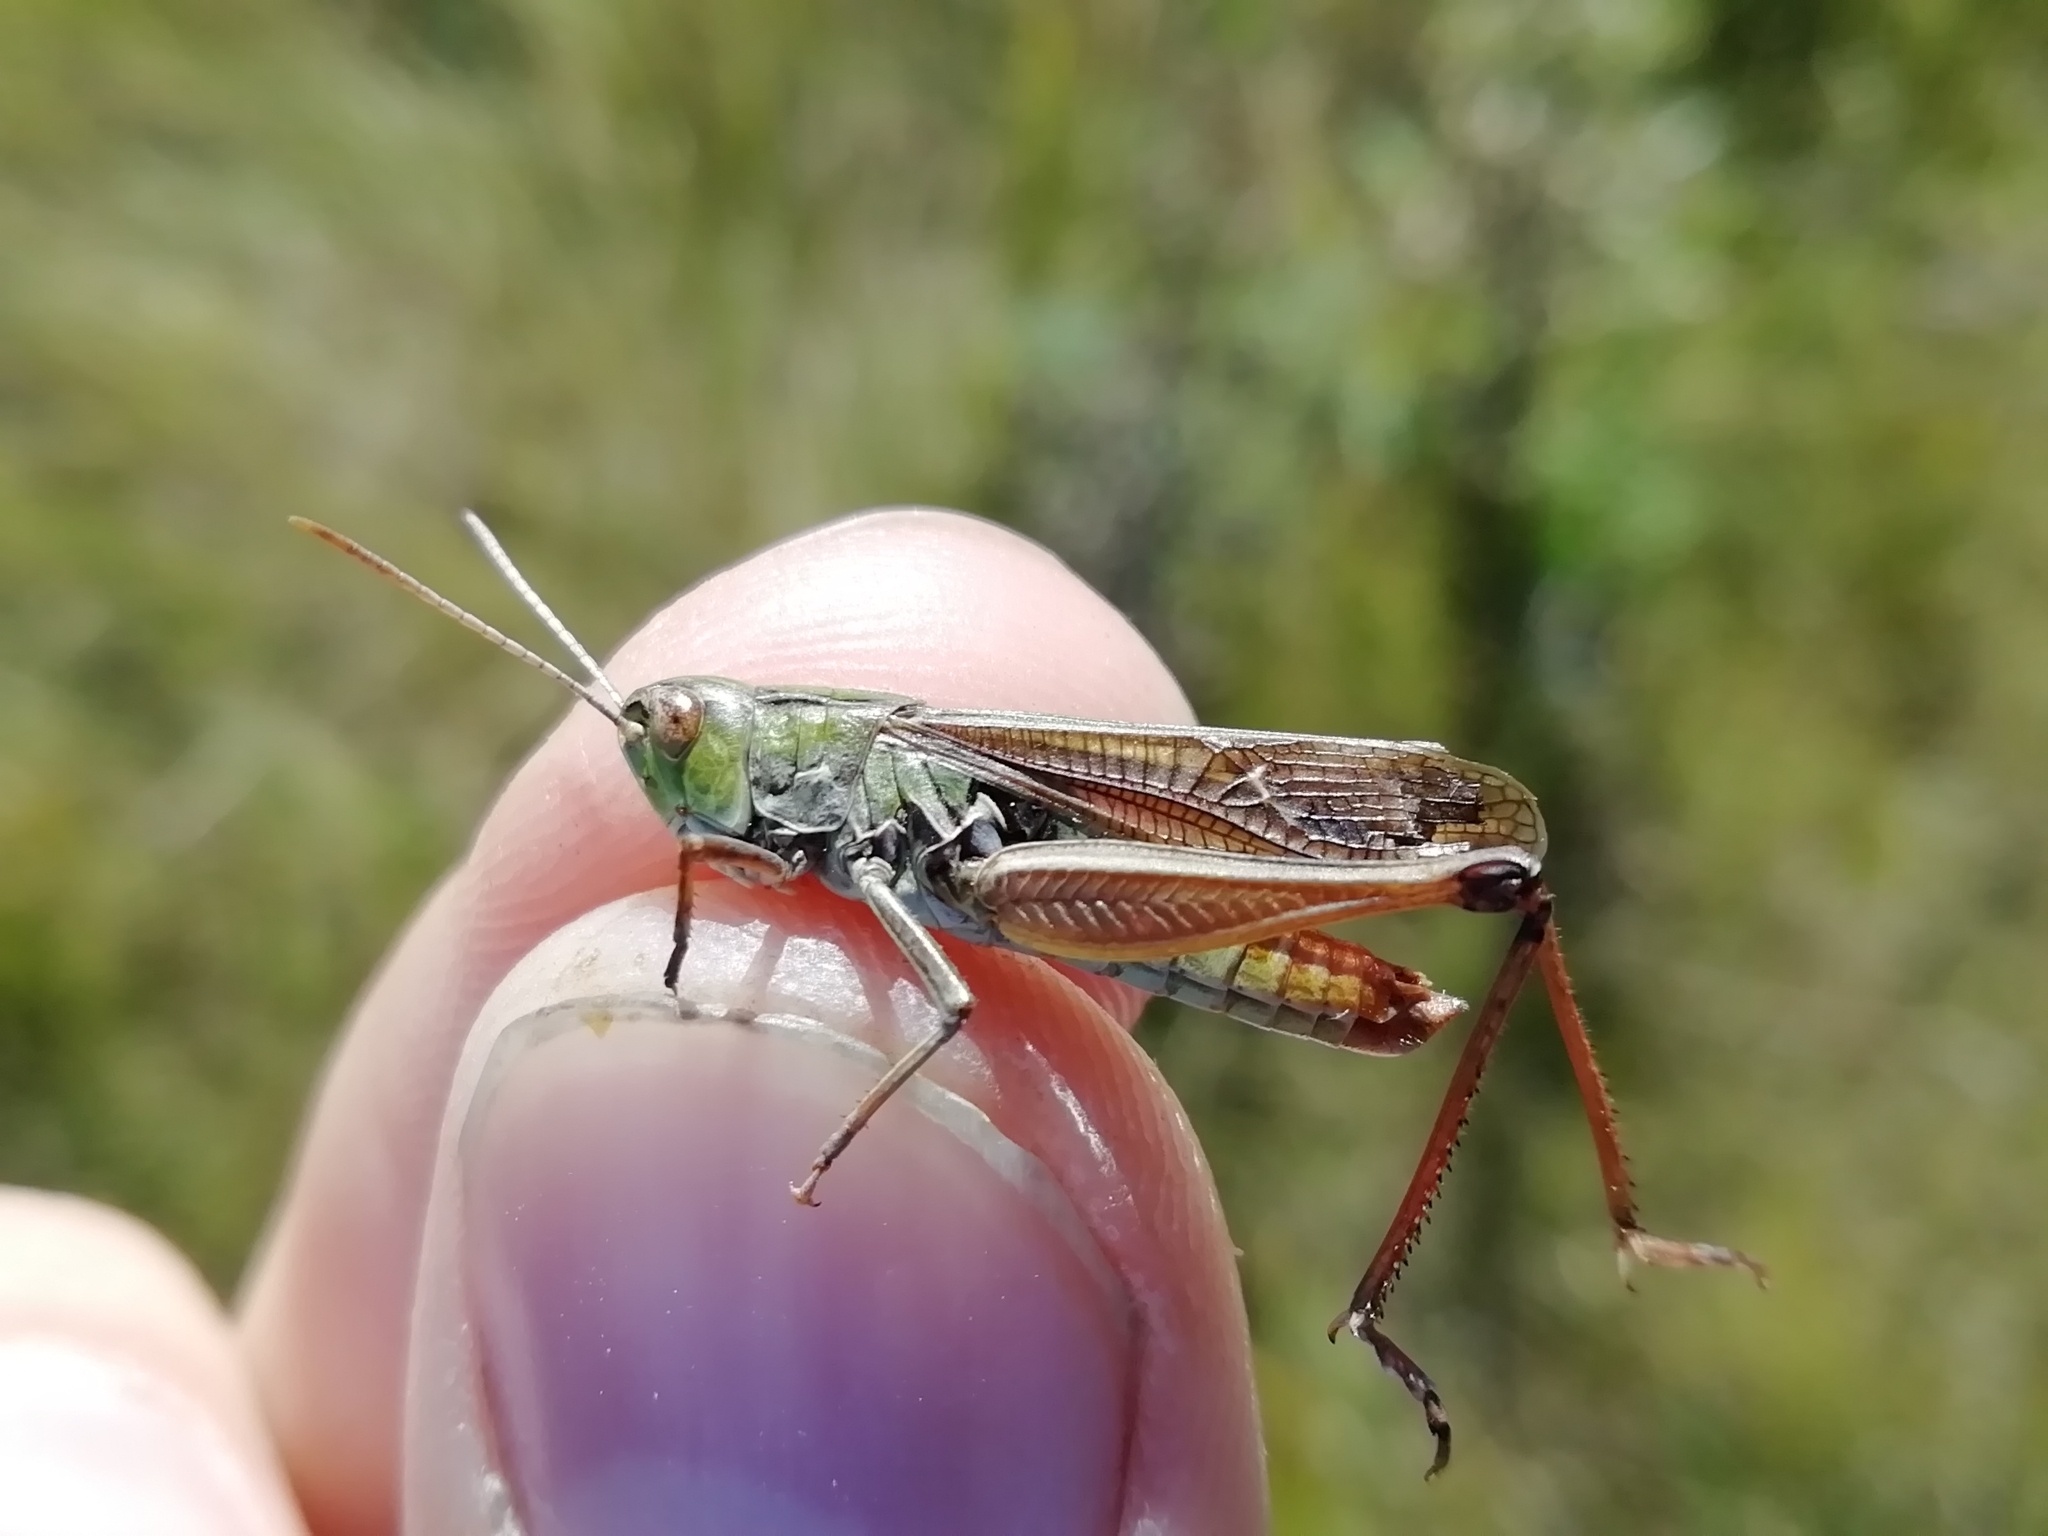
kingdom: Animalia
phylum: Arthropoda
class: Insecta
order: Orthoptera
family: Acrididae
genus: Stenobothrus
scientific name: Stenobothrus lineatus
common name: Stripe-winged grasshopper
